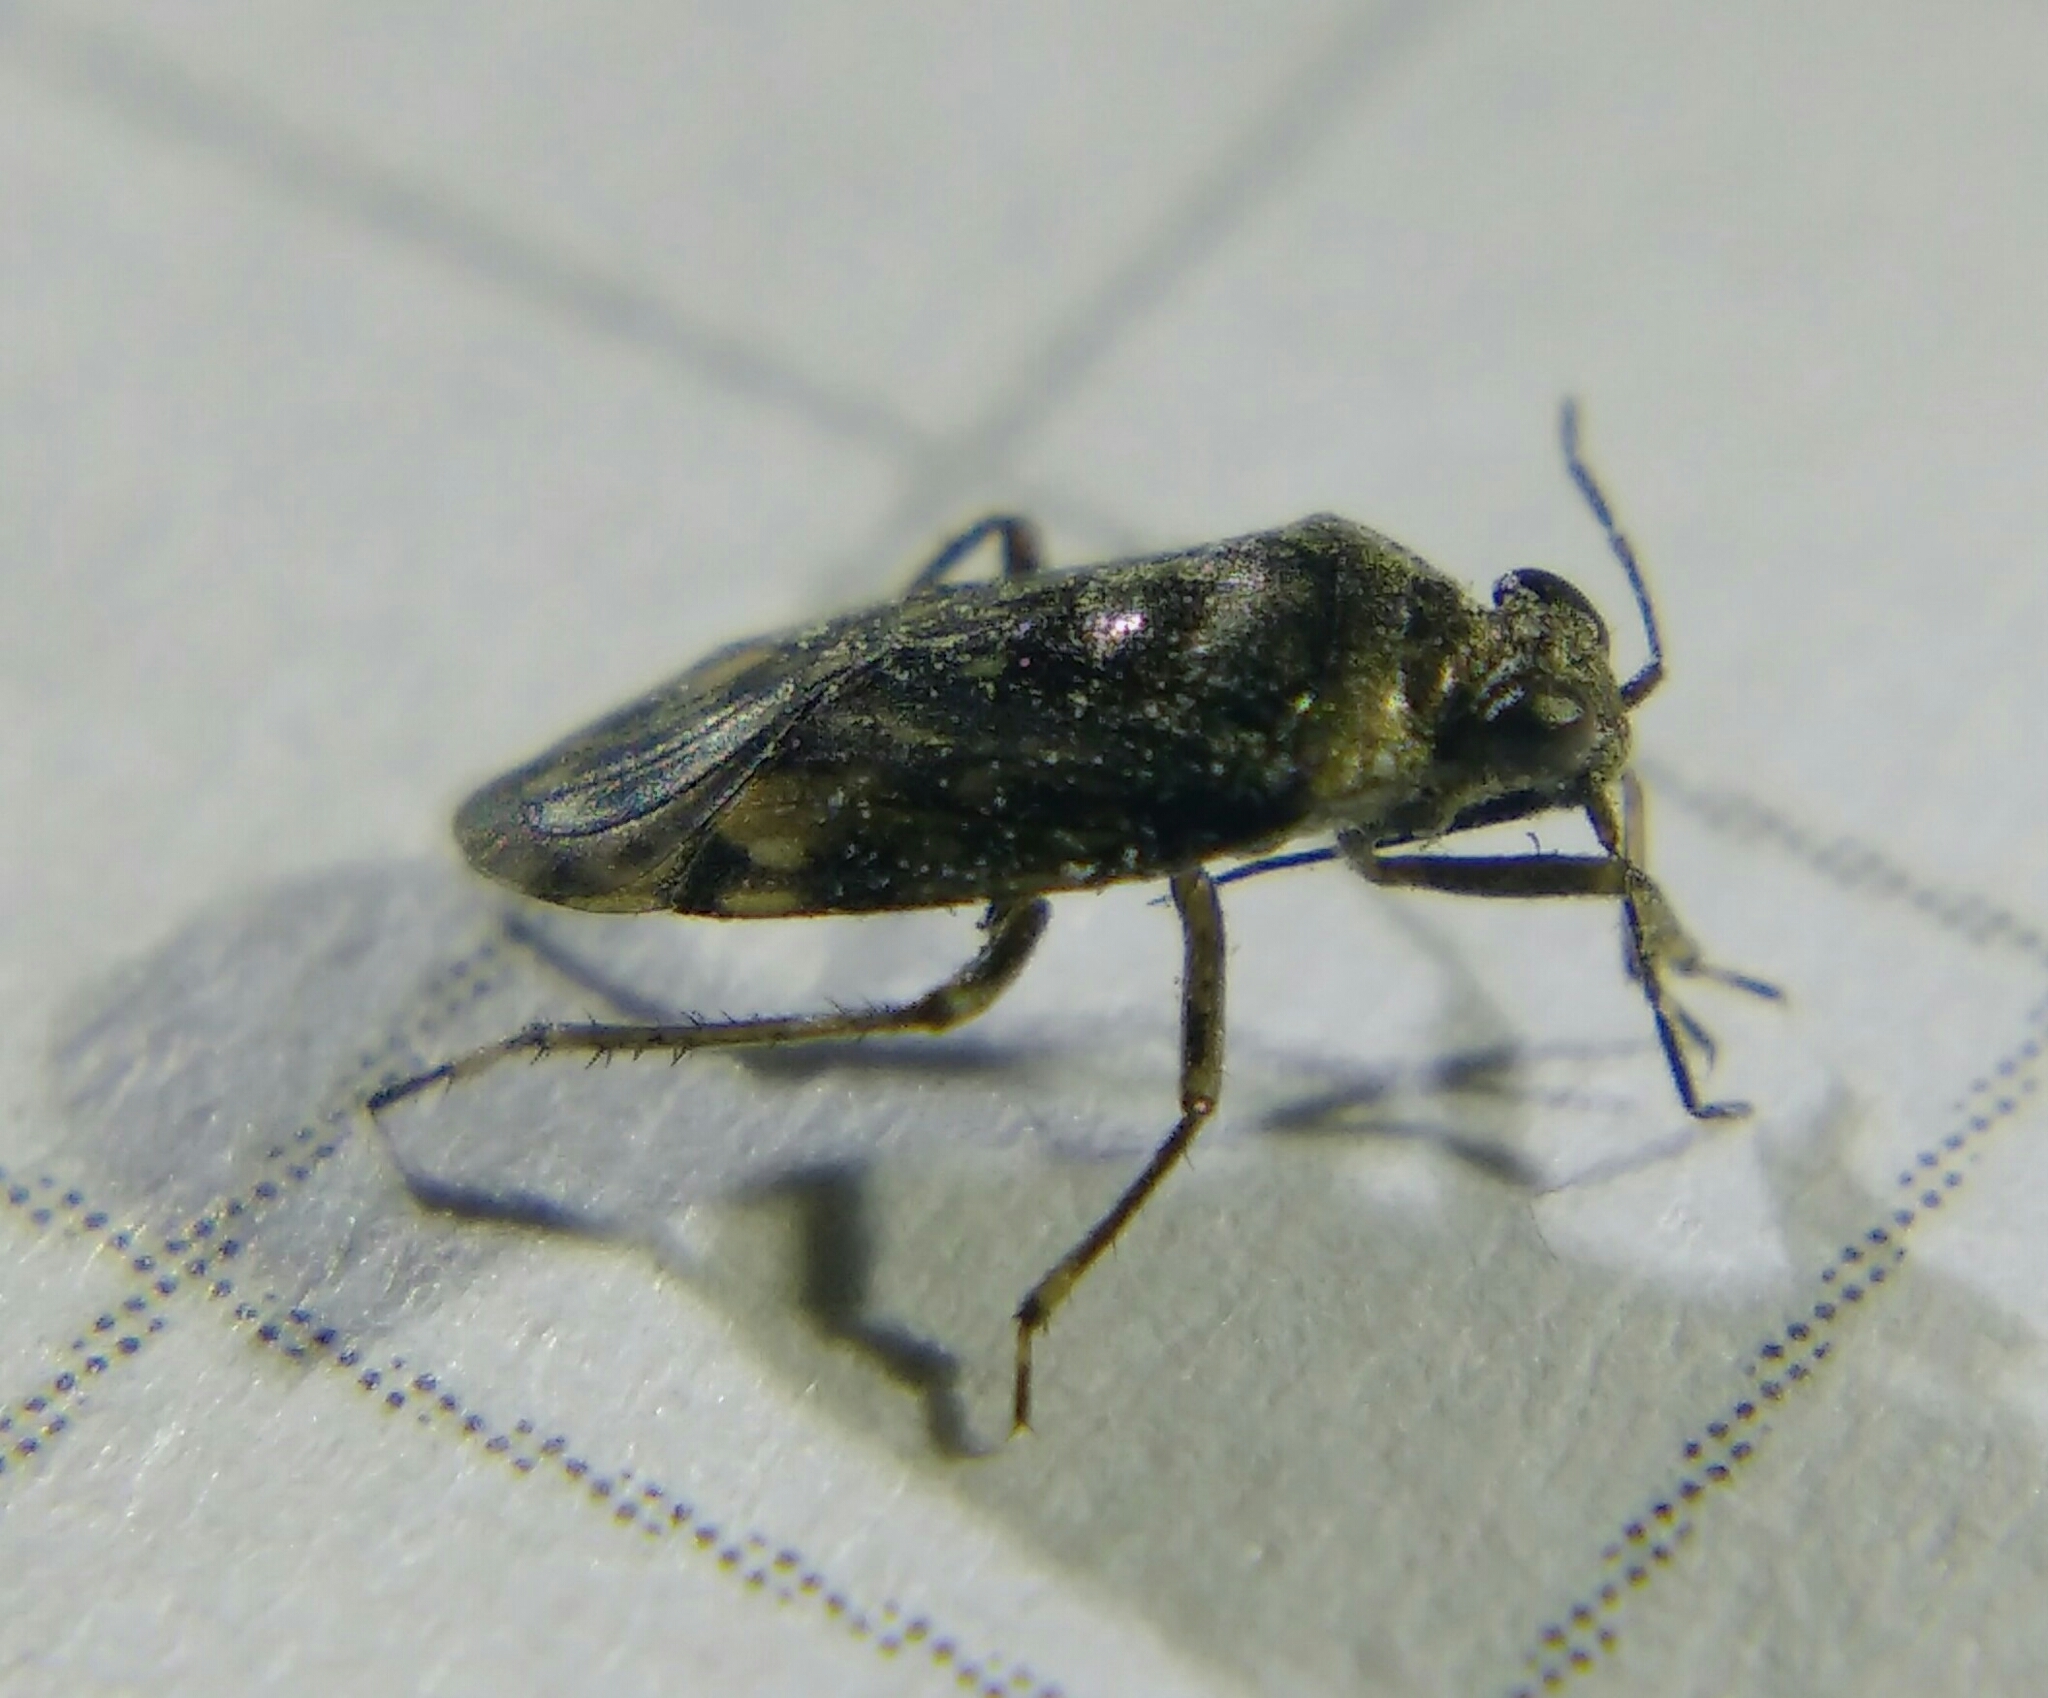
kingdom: Animalia
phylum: Arthropoda
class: Insecta
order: Hemiptera
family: Saldidae
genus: Saldula
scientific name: Saldula saltatoria
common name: Common shorebug
